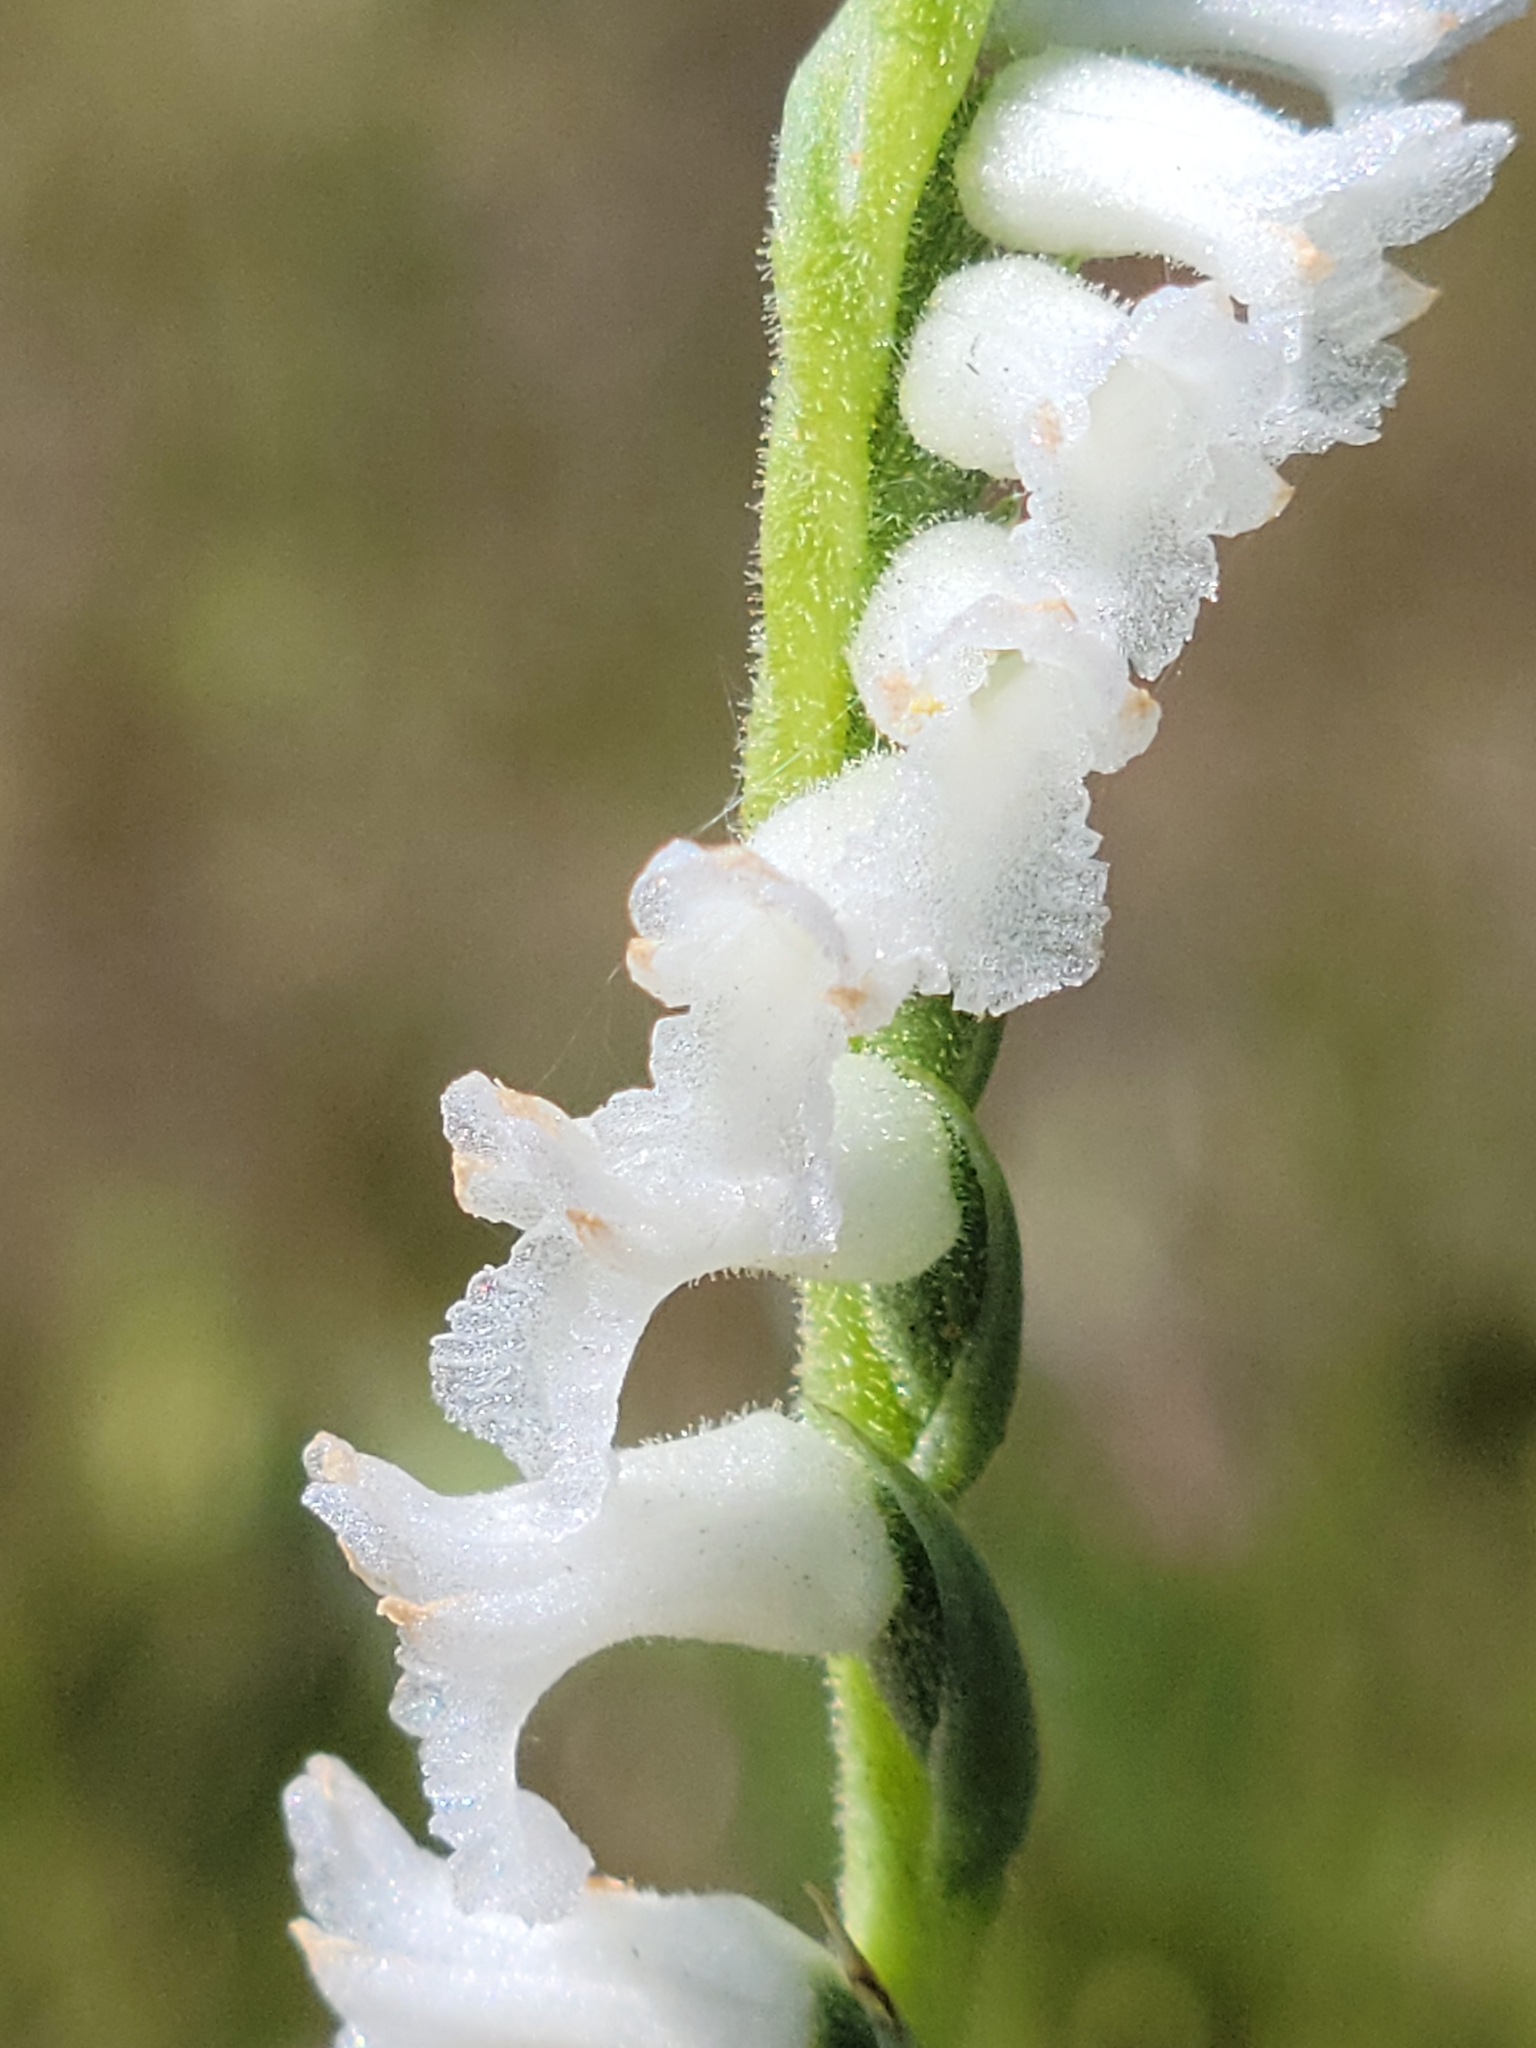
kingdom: Plantae
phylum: Tracheophyta
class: Liliopsida
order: Asparagales
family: Orchidaceae
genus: Spiranthes
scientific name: Spiranthes praecox
